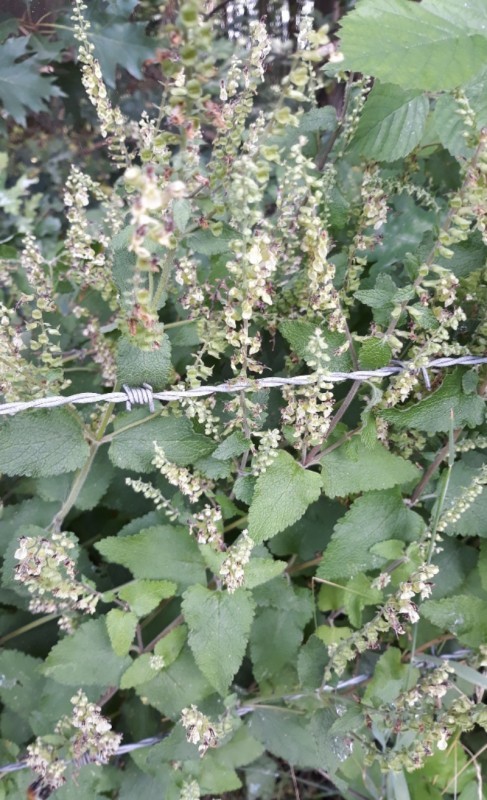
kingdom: Plantae
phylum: Tracheophyta
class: Magnoliopsida
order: Lamiales
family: Lamiaceae
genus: Teucrium
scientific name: Teucrium scorodonia
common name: Woodland germander
